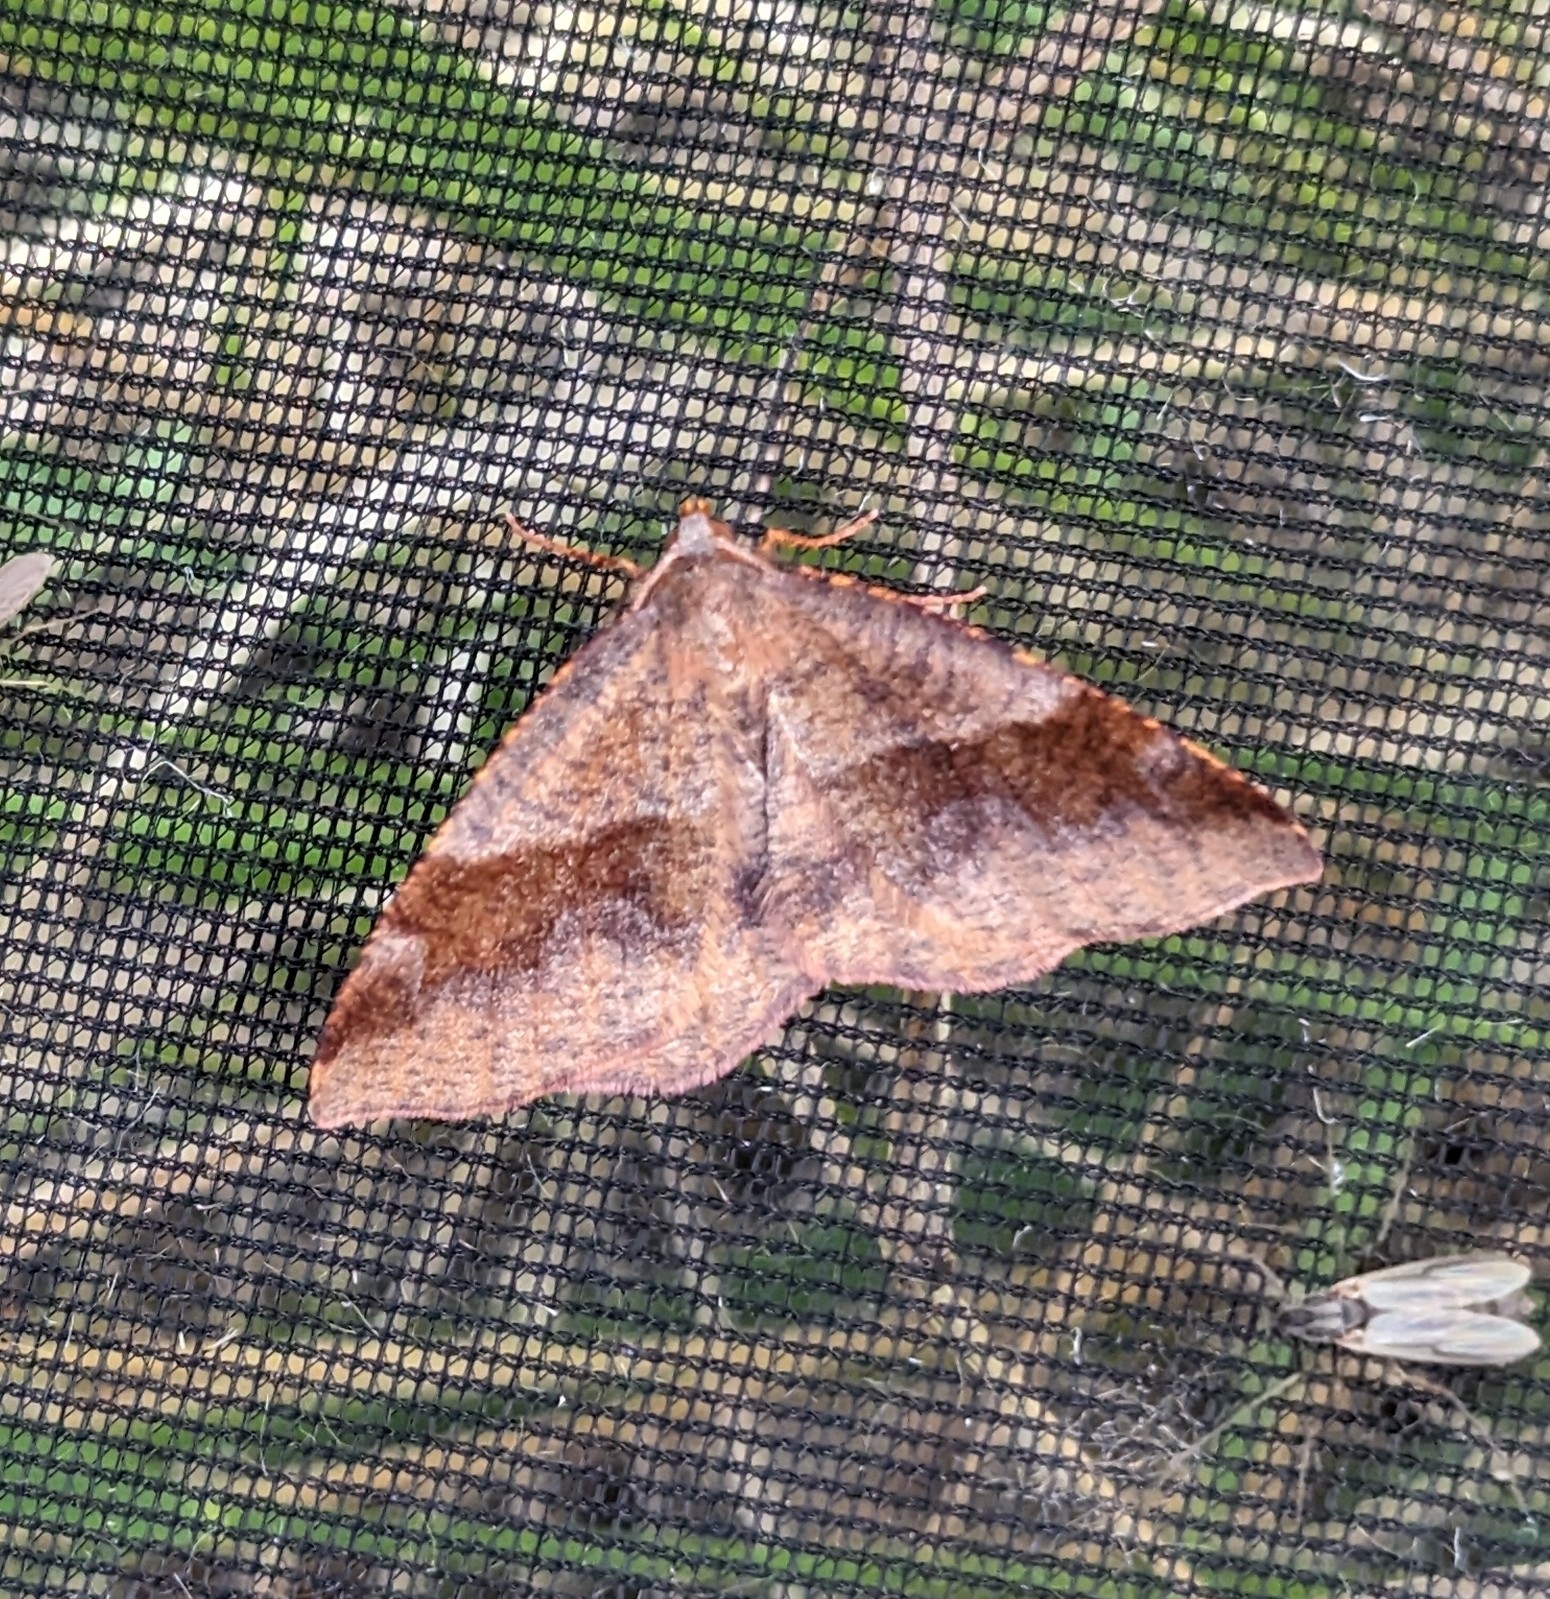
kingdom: Animalia
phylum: Arthropoda
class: Insecta
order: Lepidoptera
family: Geometridae
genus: Plagodis
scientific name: Plagodis pulveraria
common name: Barred umber
